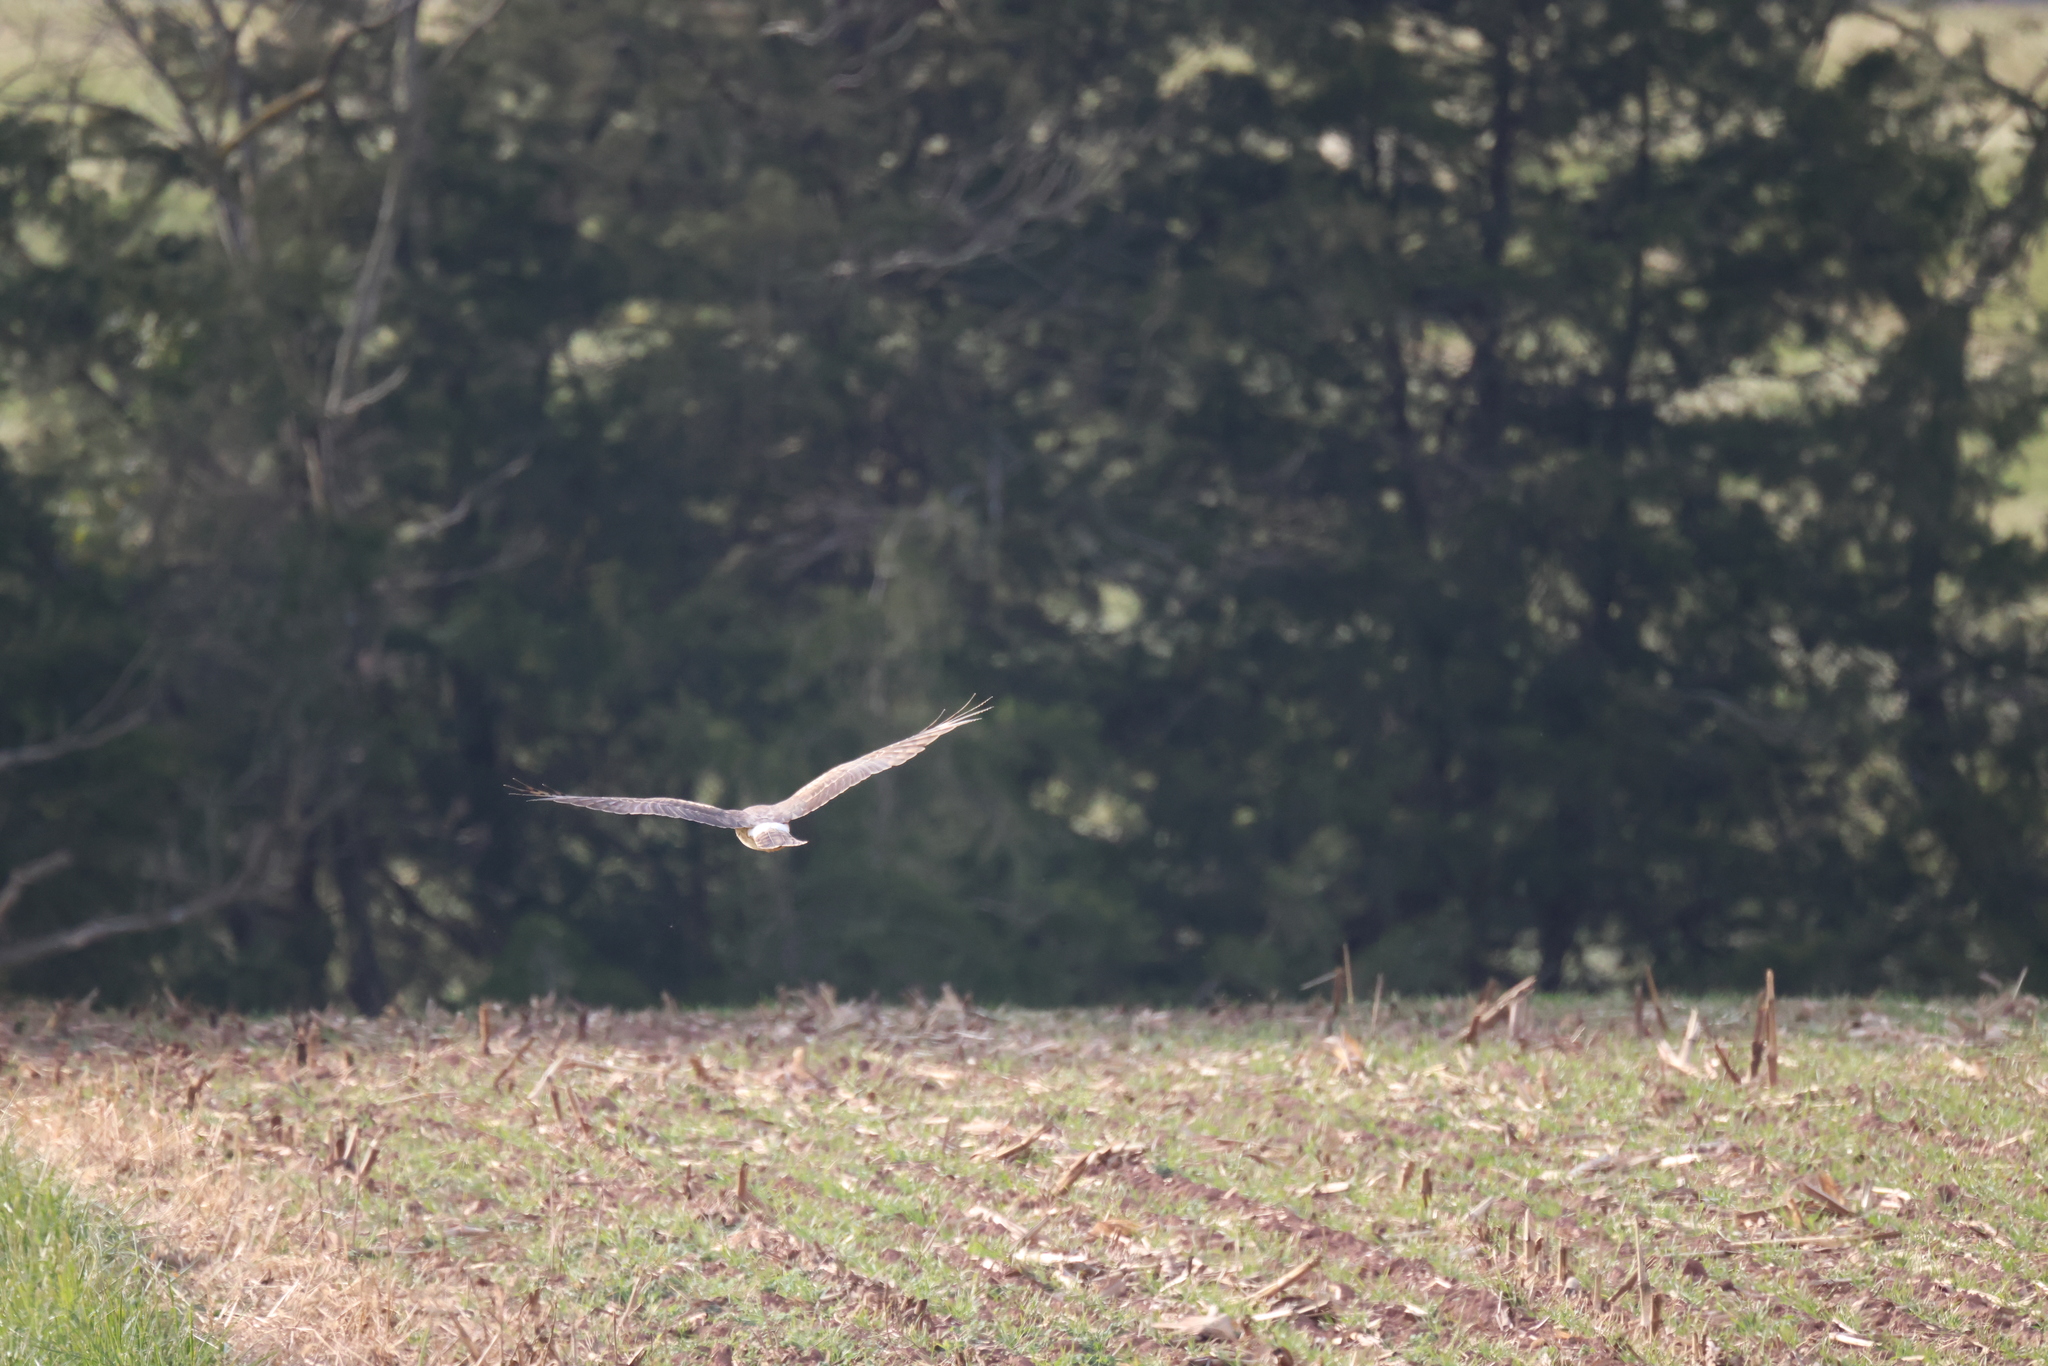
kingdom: Animalia
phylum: Chordata
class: Aves
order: Accipitriformes
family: Accipitridae
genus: Circus
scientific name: Circus cyaneus
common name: Hen harrier
